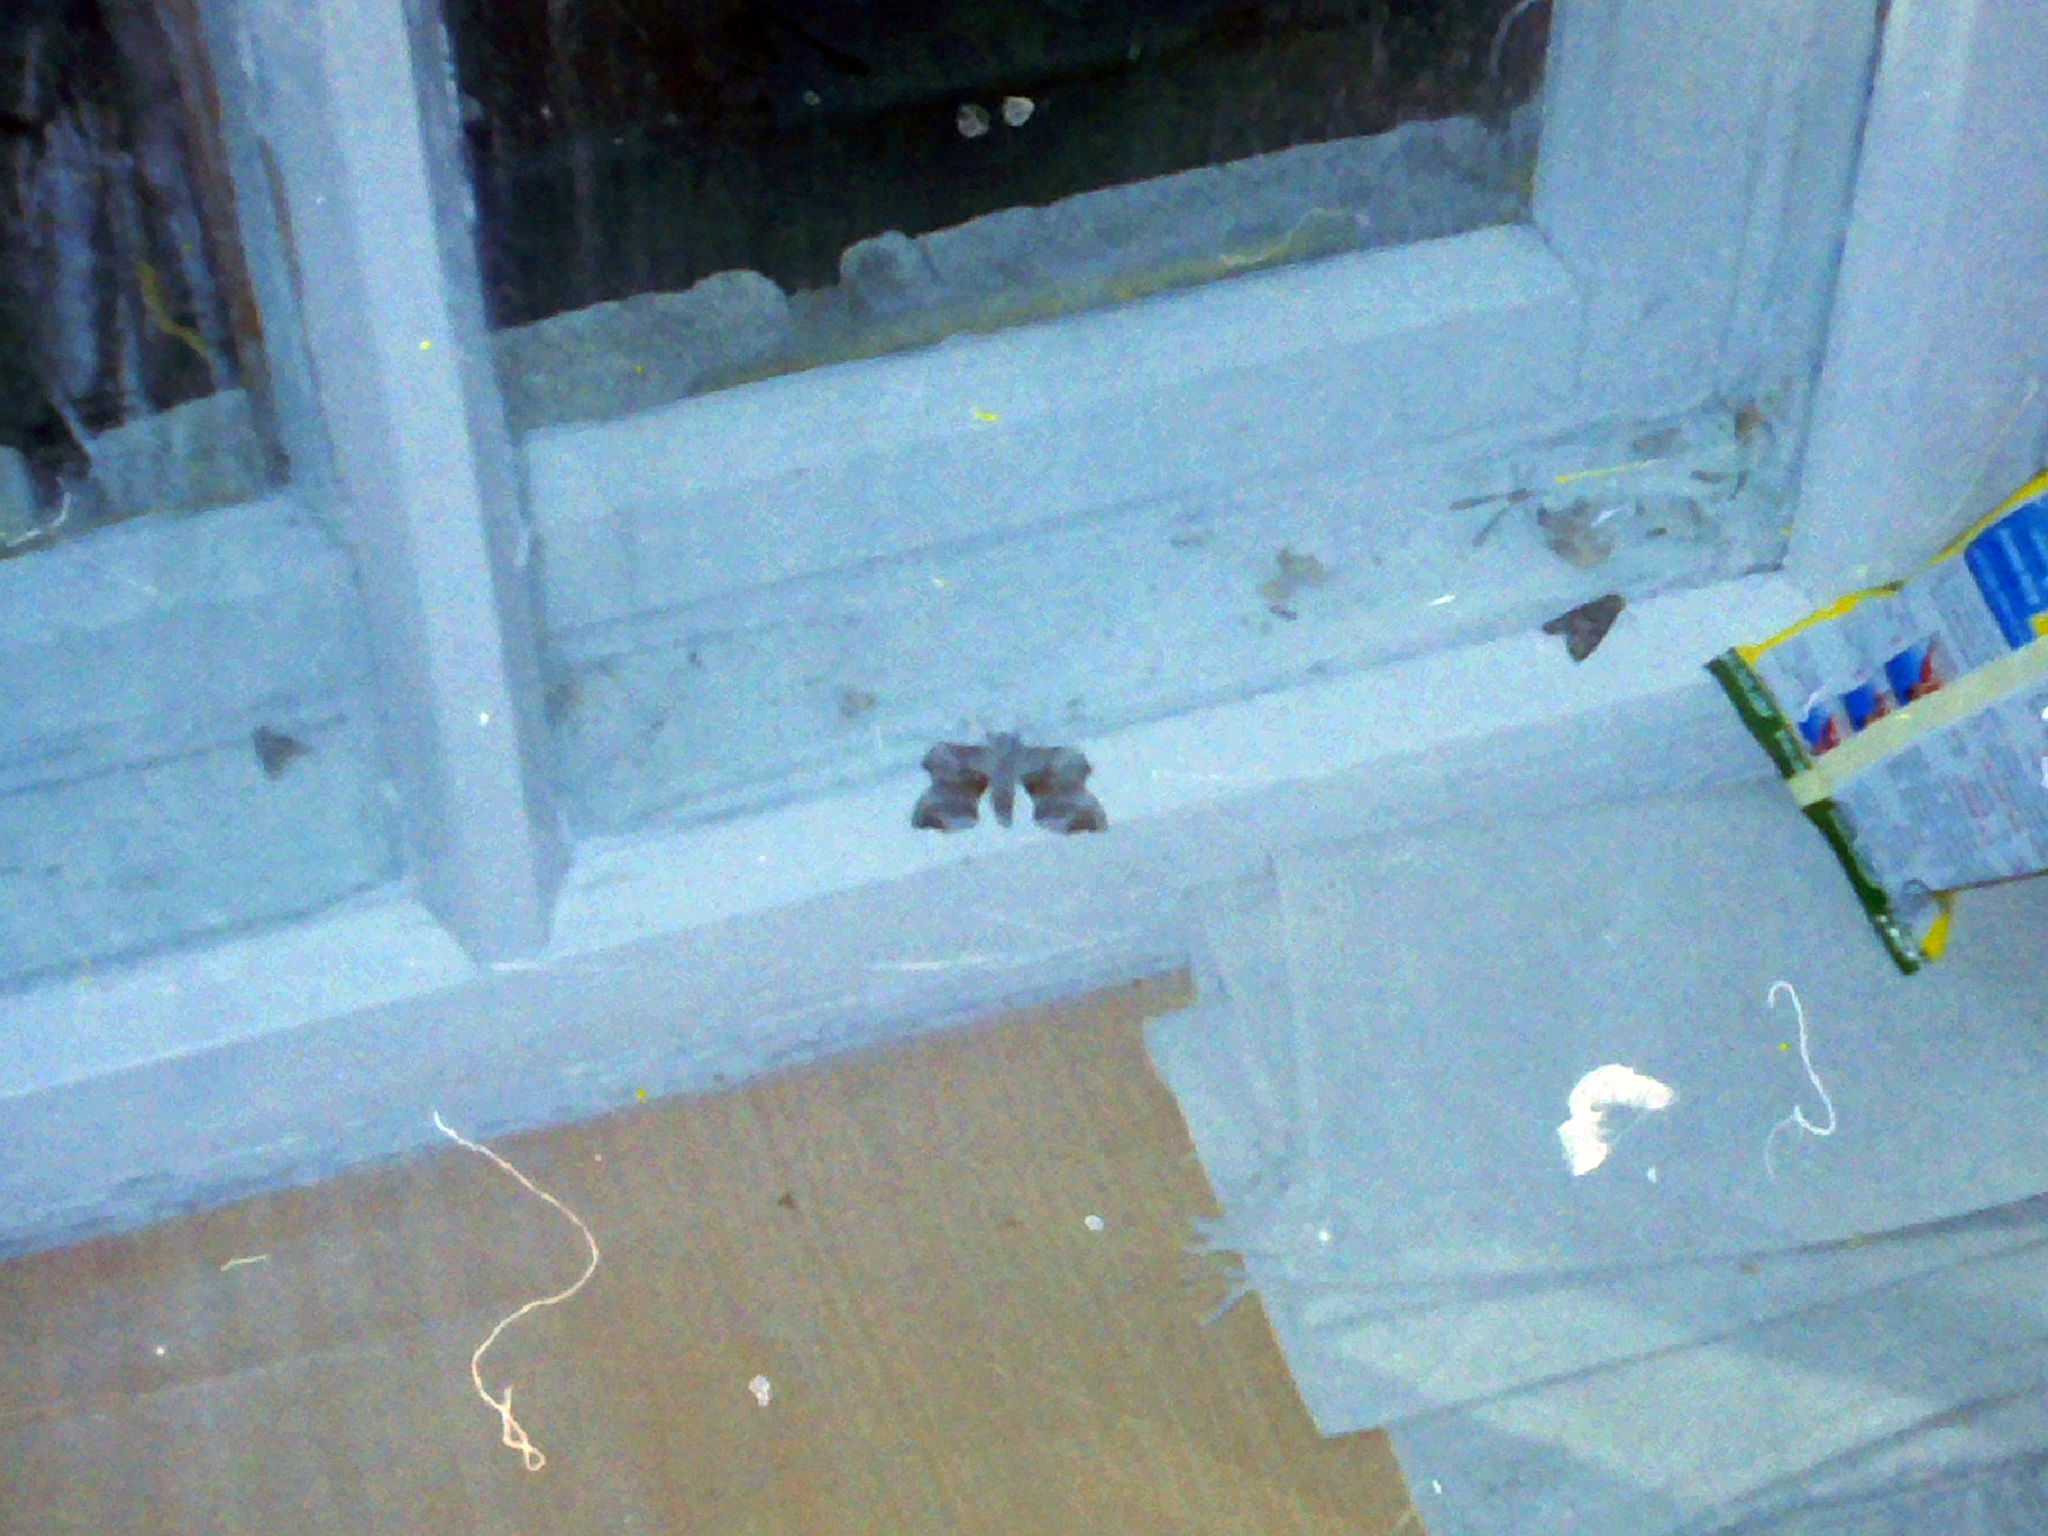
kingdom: Animalia
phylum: Arthropoda
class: Insecta
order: Lepidoptera
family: Sphingidae
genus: Laothoe
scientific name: Laothoe populi
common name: Poplar hawk-moth
